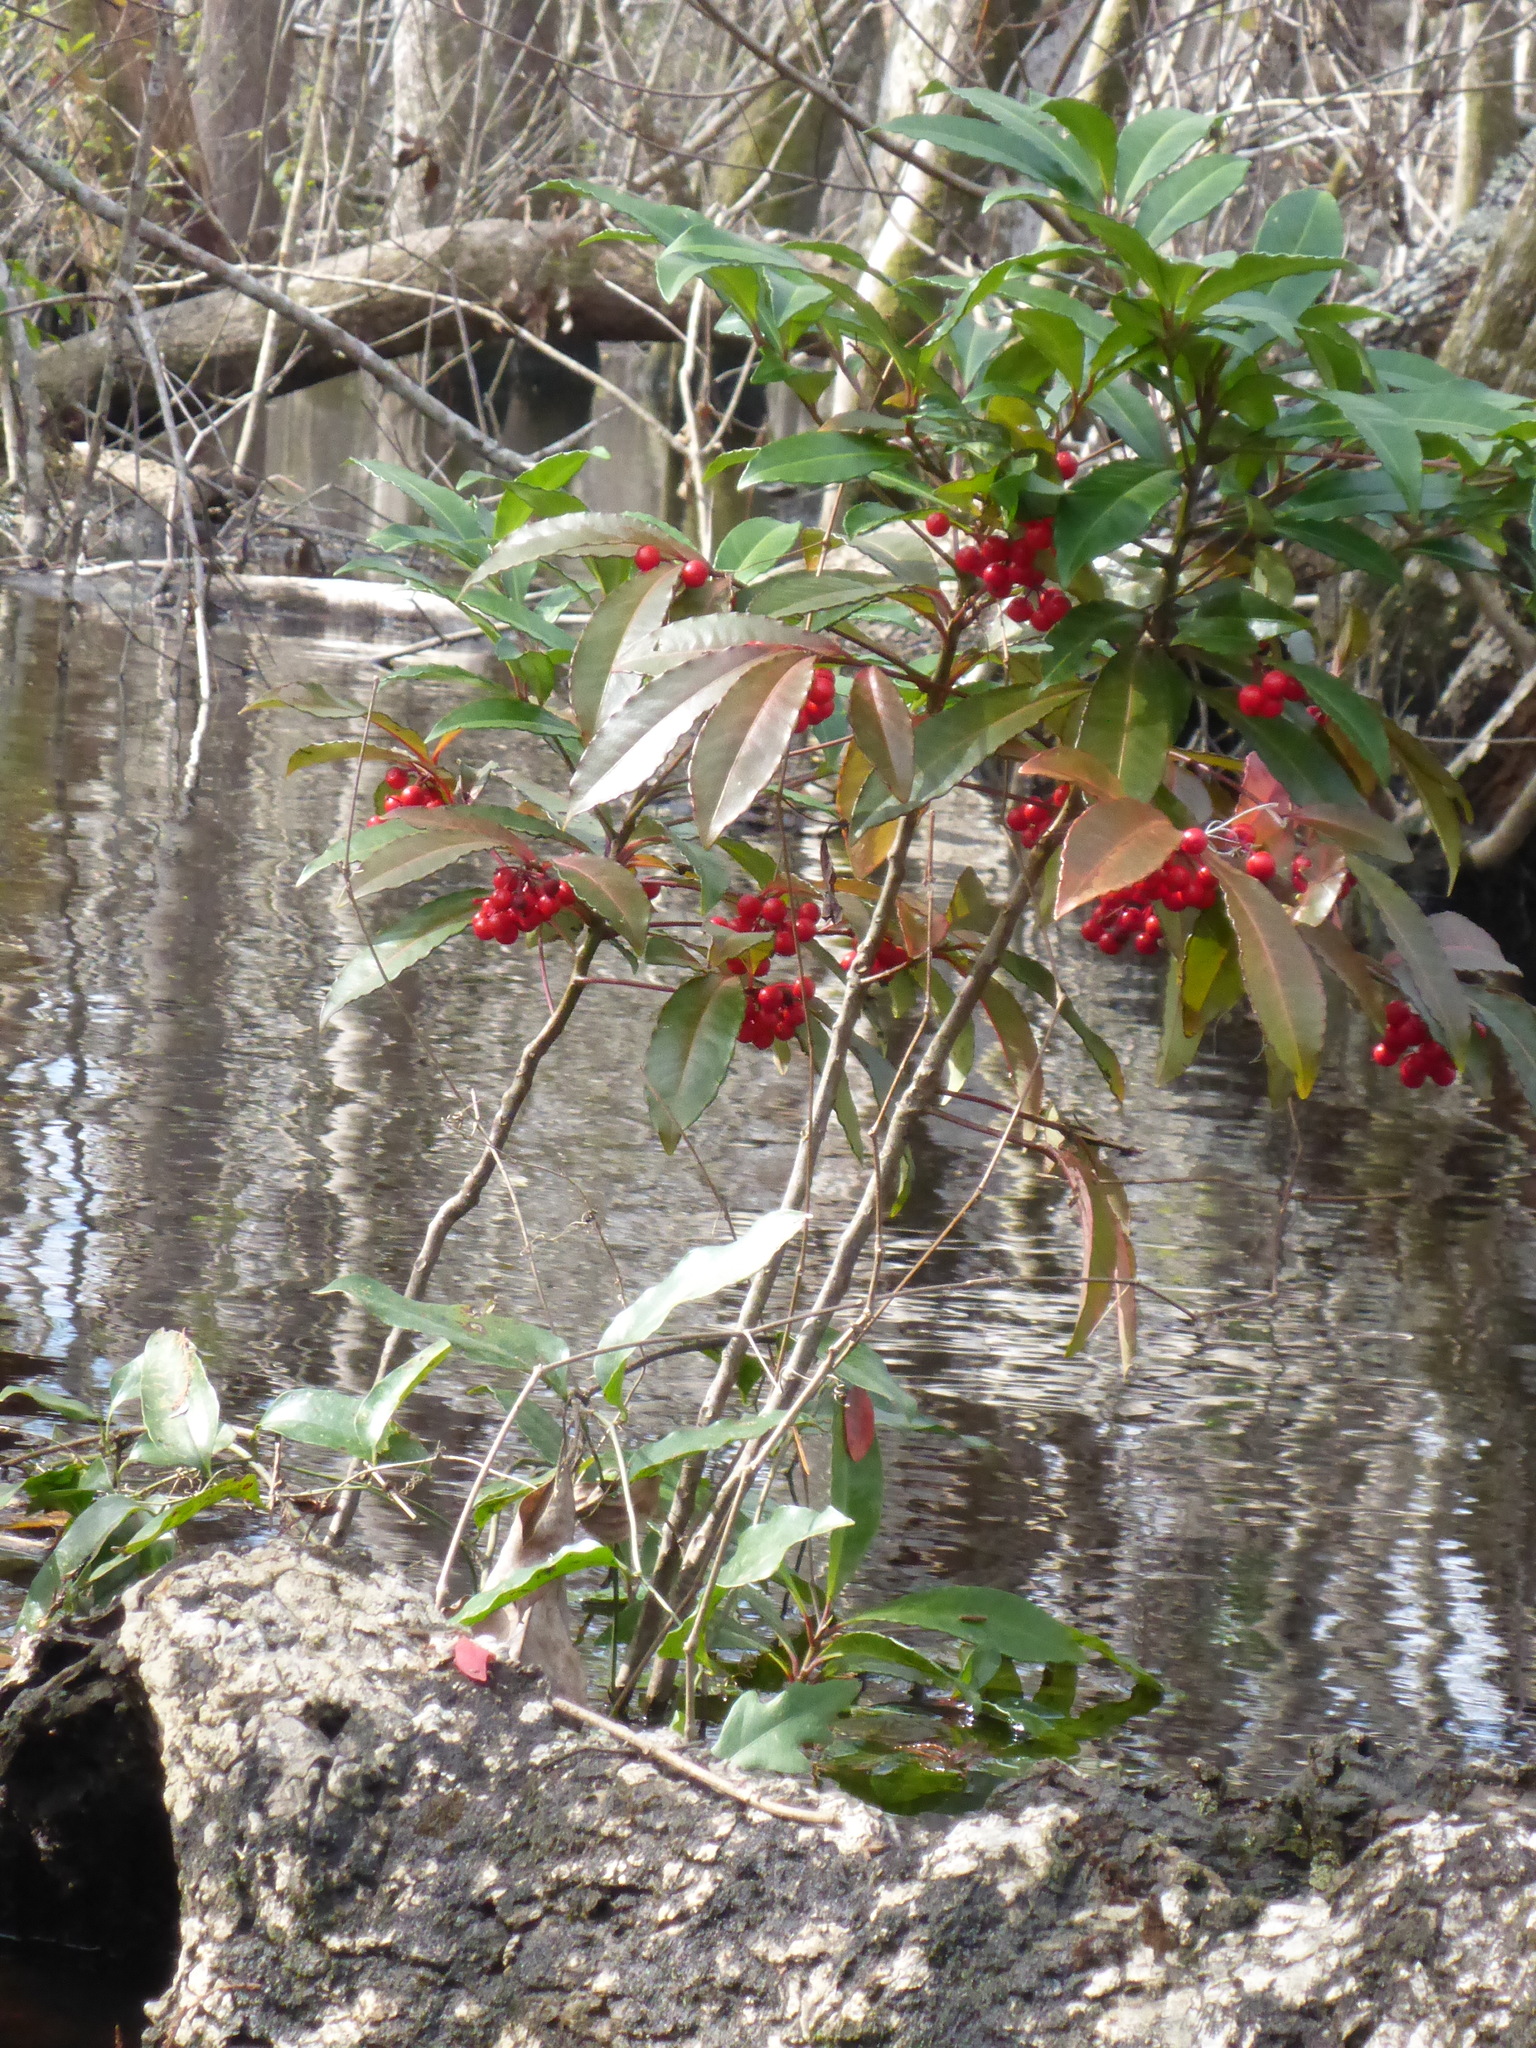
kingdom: Plantae
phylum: Tracheophyta
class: Magnoliopsida
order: Ericales
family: Primulaceae
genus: Ardisia
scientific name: Ardisia crenata
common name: Hen's eyes
